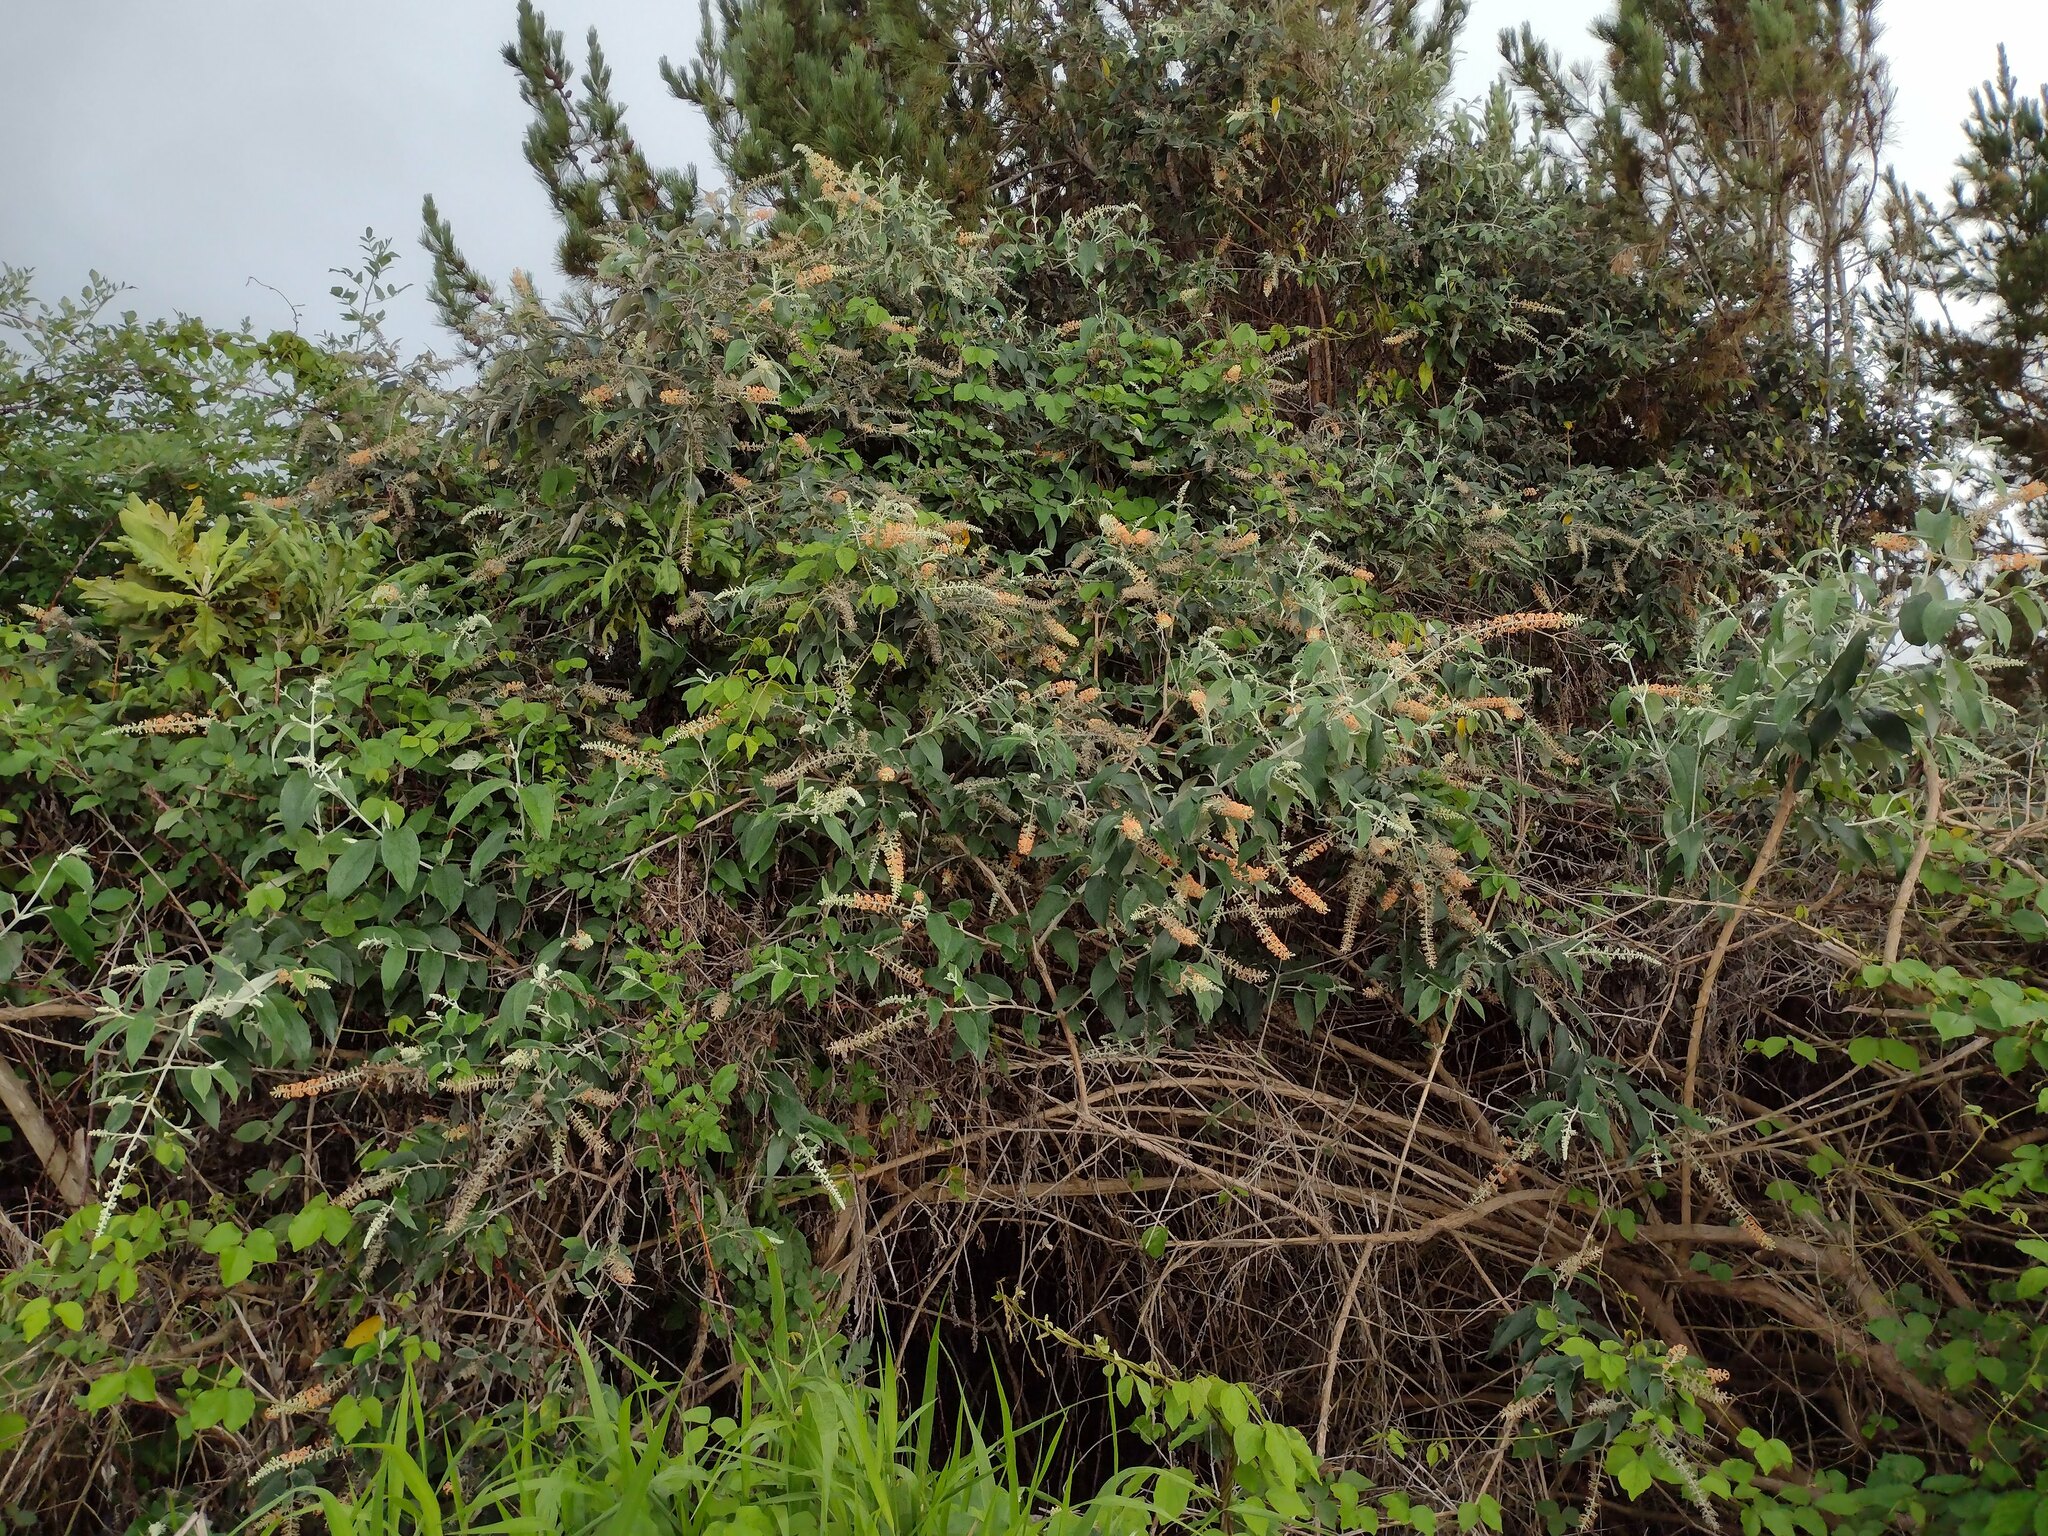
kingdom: Plantae
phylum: Tracheophyta
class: Magnoliopsida
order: Lamiales
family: Scrophulariaceae
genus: Buddleja
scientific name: Buddleja madagascariensis
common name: Smokebush
